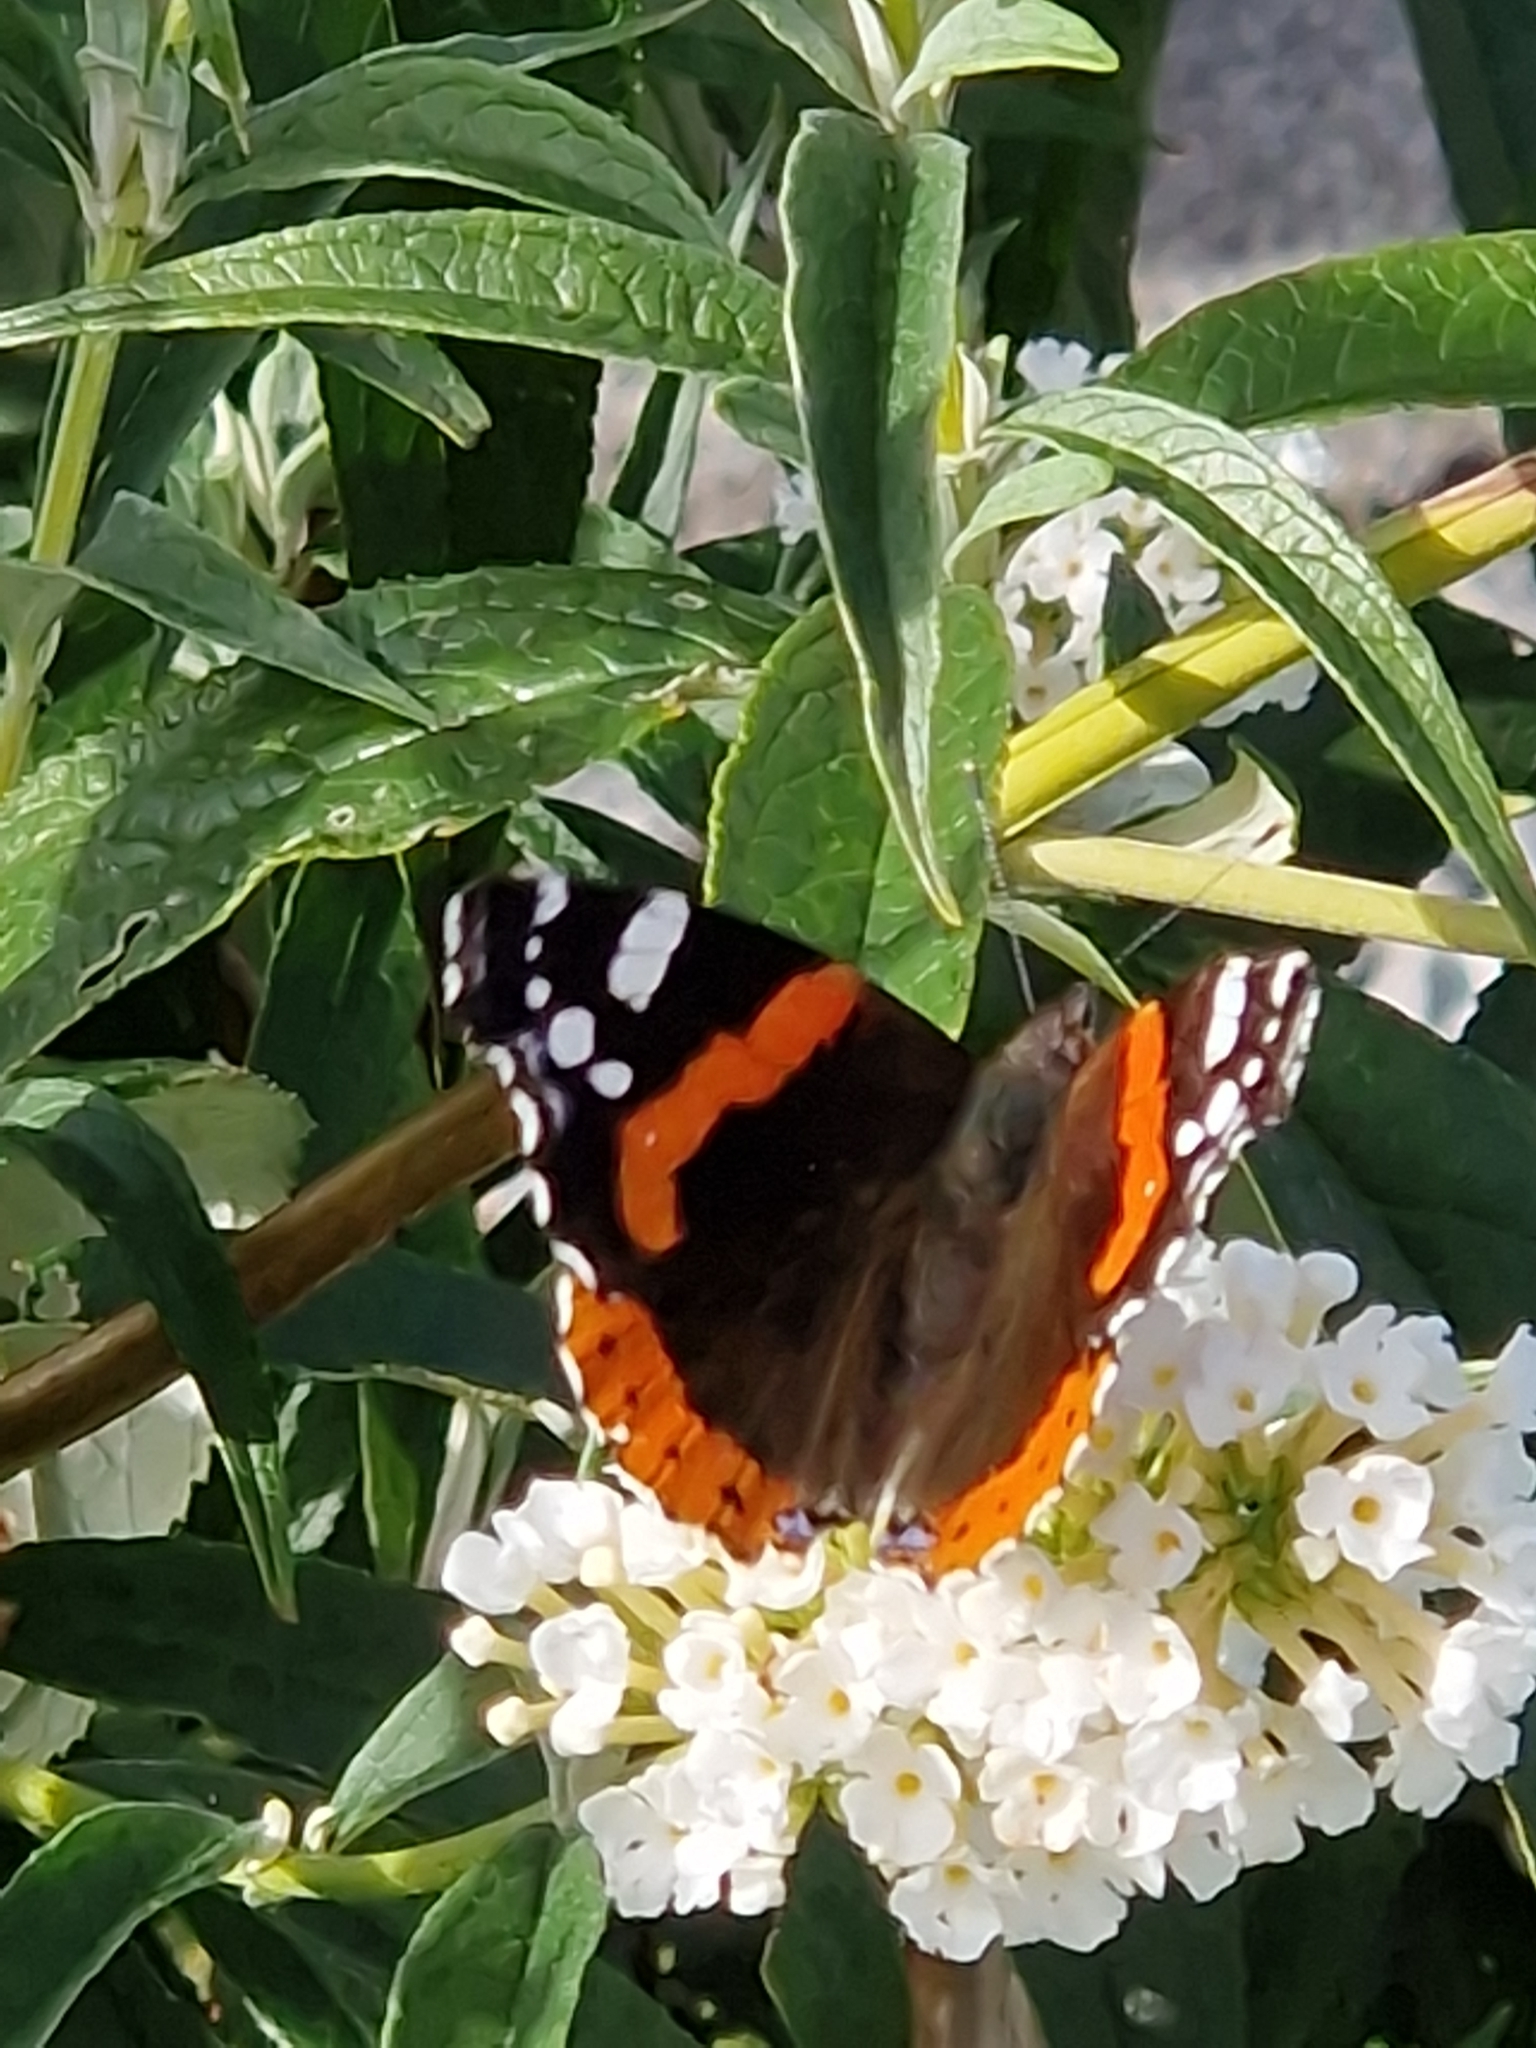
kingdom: Animalia
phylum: Arthropoda
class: Insecta
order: Lepidoptera
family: Nymphalidae
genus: Vanessa
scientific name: Vanessa atalanta
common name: Red admiral
